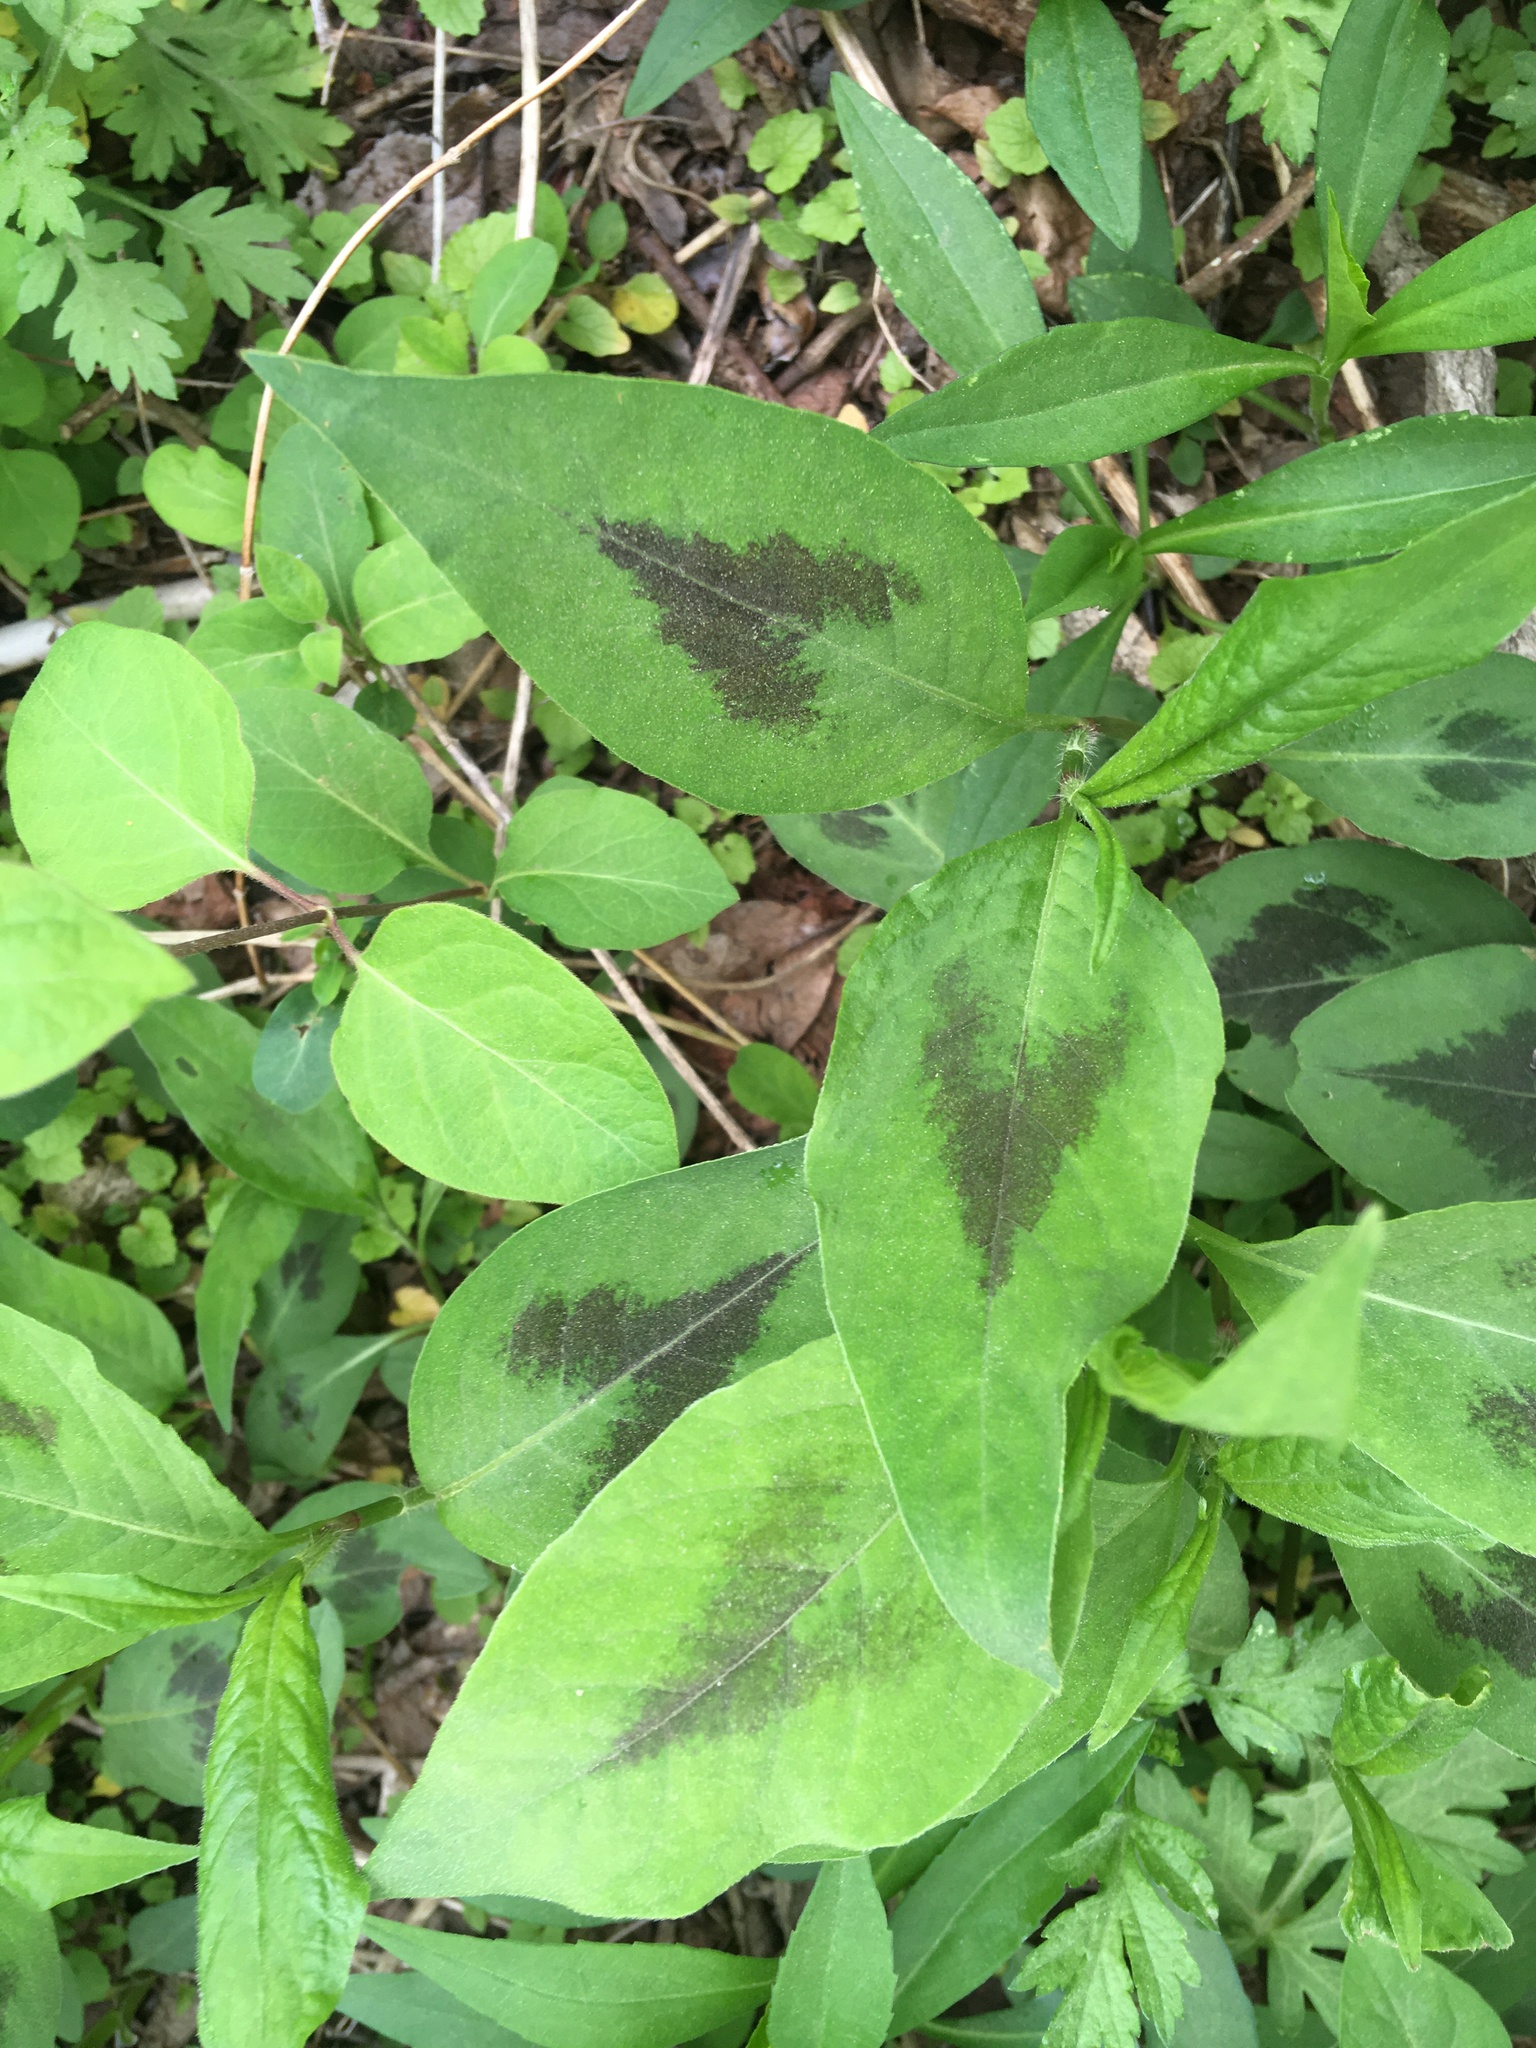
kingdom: Plantae
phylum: Tracheophyta
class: Magnoliopsida
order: Caryophyllales
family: Polygonaceae
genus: Persicaria
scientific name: Persicaria virginiana
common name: Jumpseed
